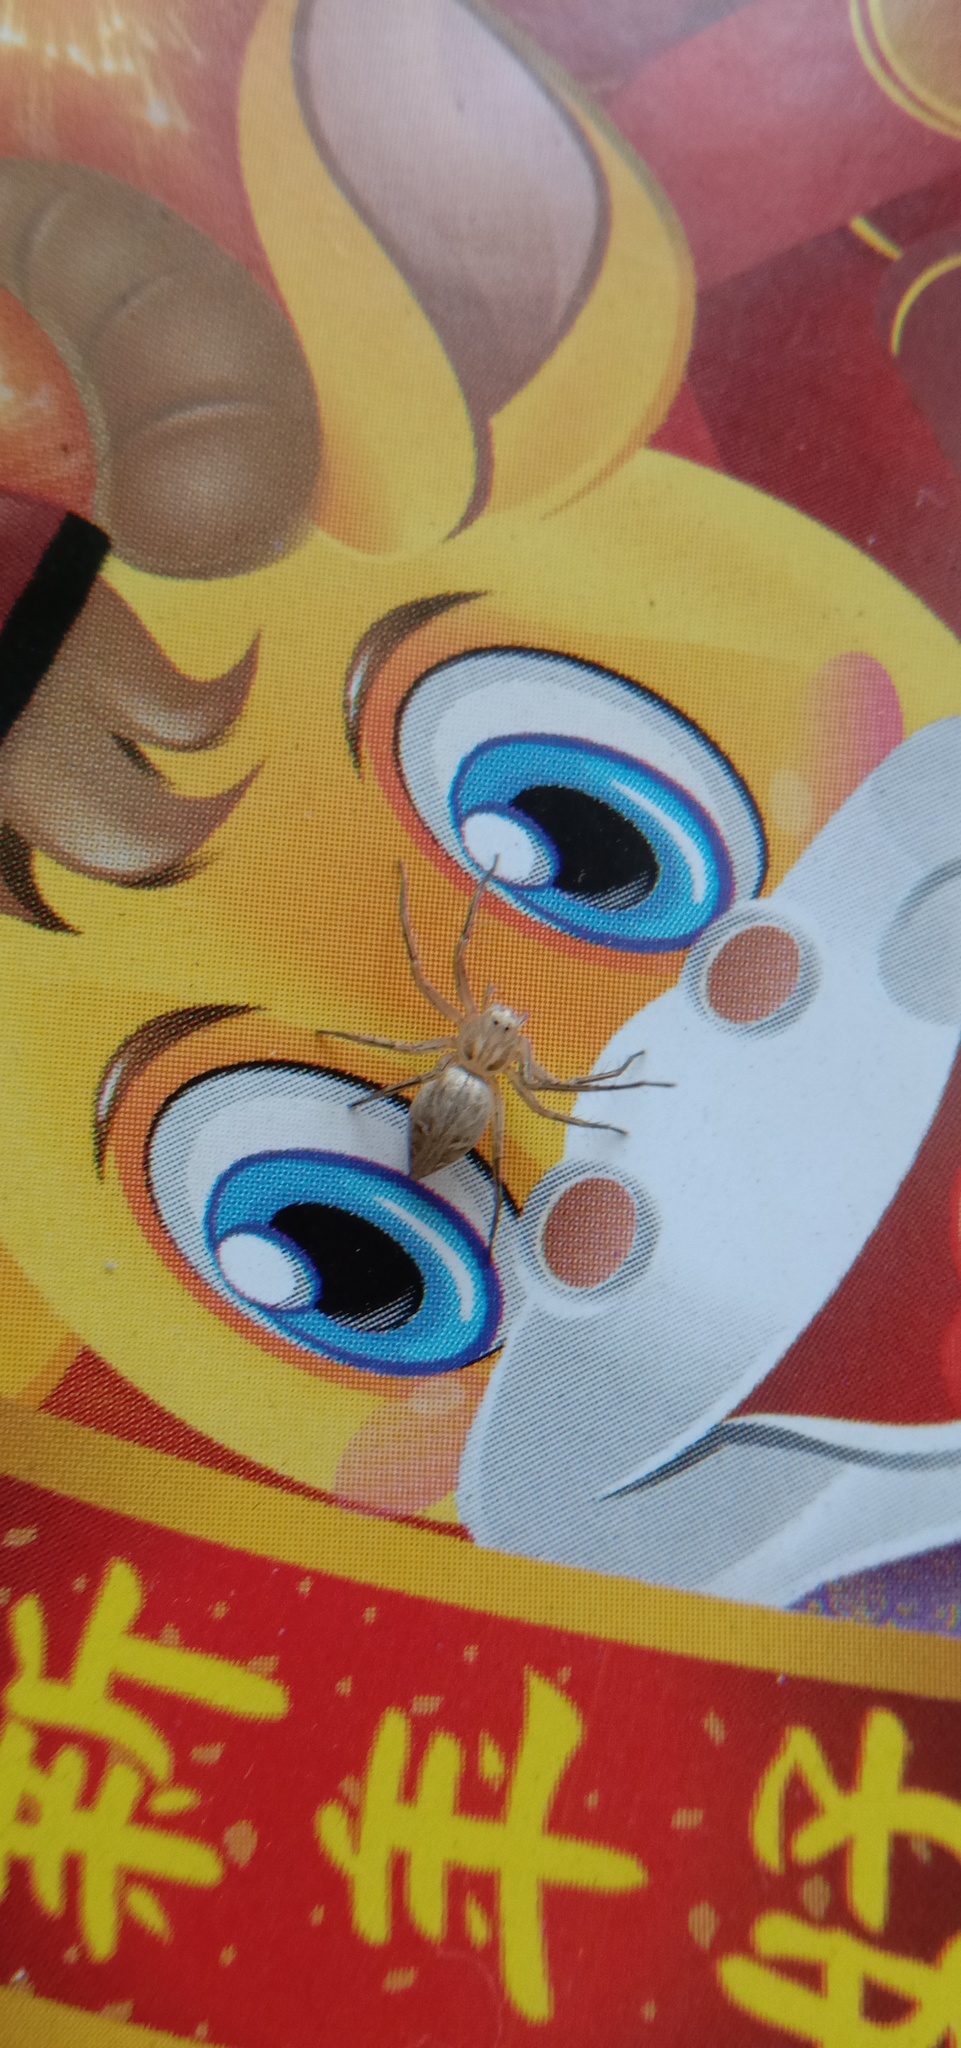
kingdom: Animalia
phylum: Arthropoda
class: Arachnida
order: Araneae
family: Oxyopidae
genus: Oxyopes
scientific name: Oxyopes sertatus
